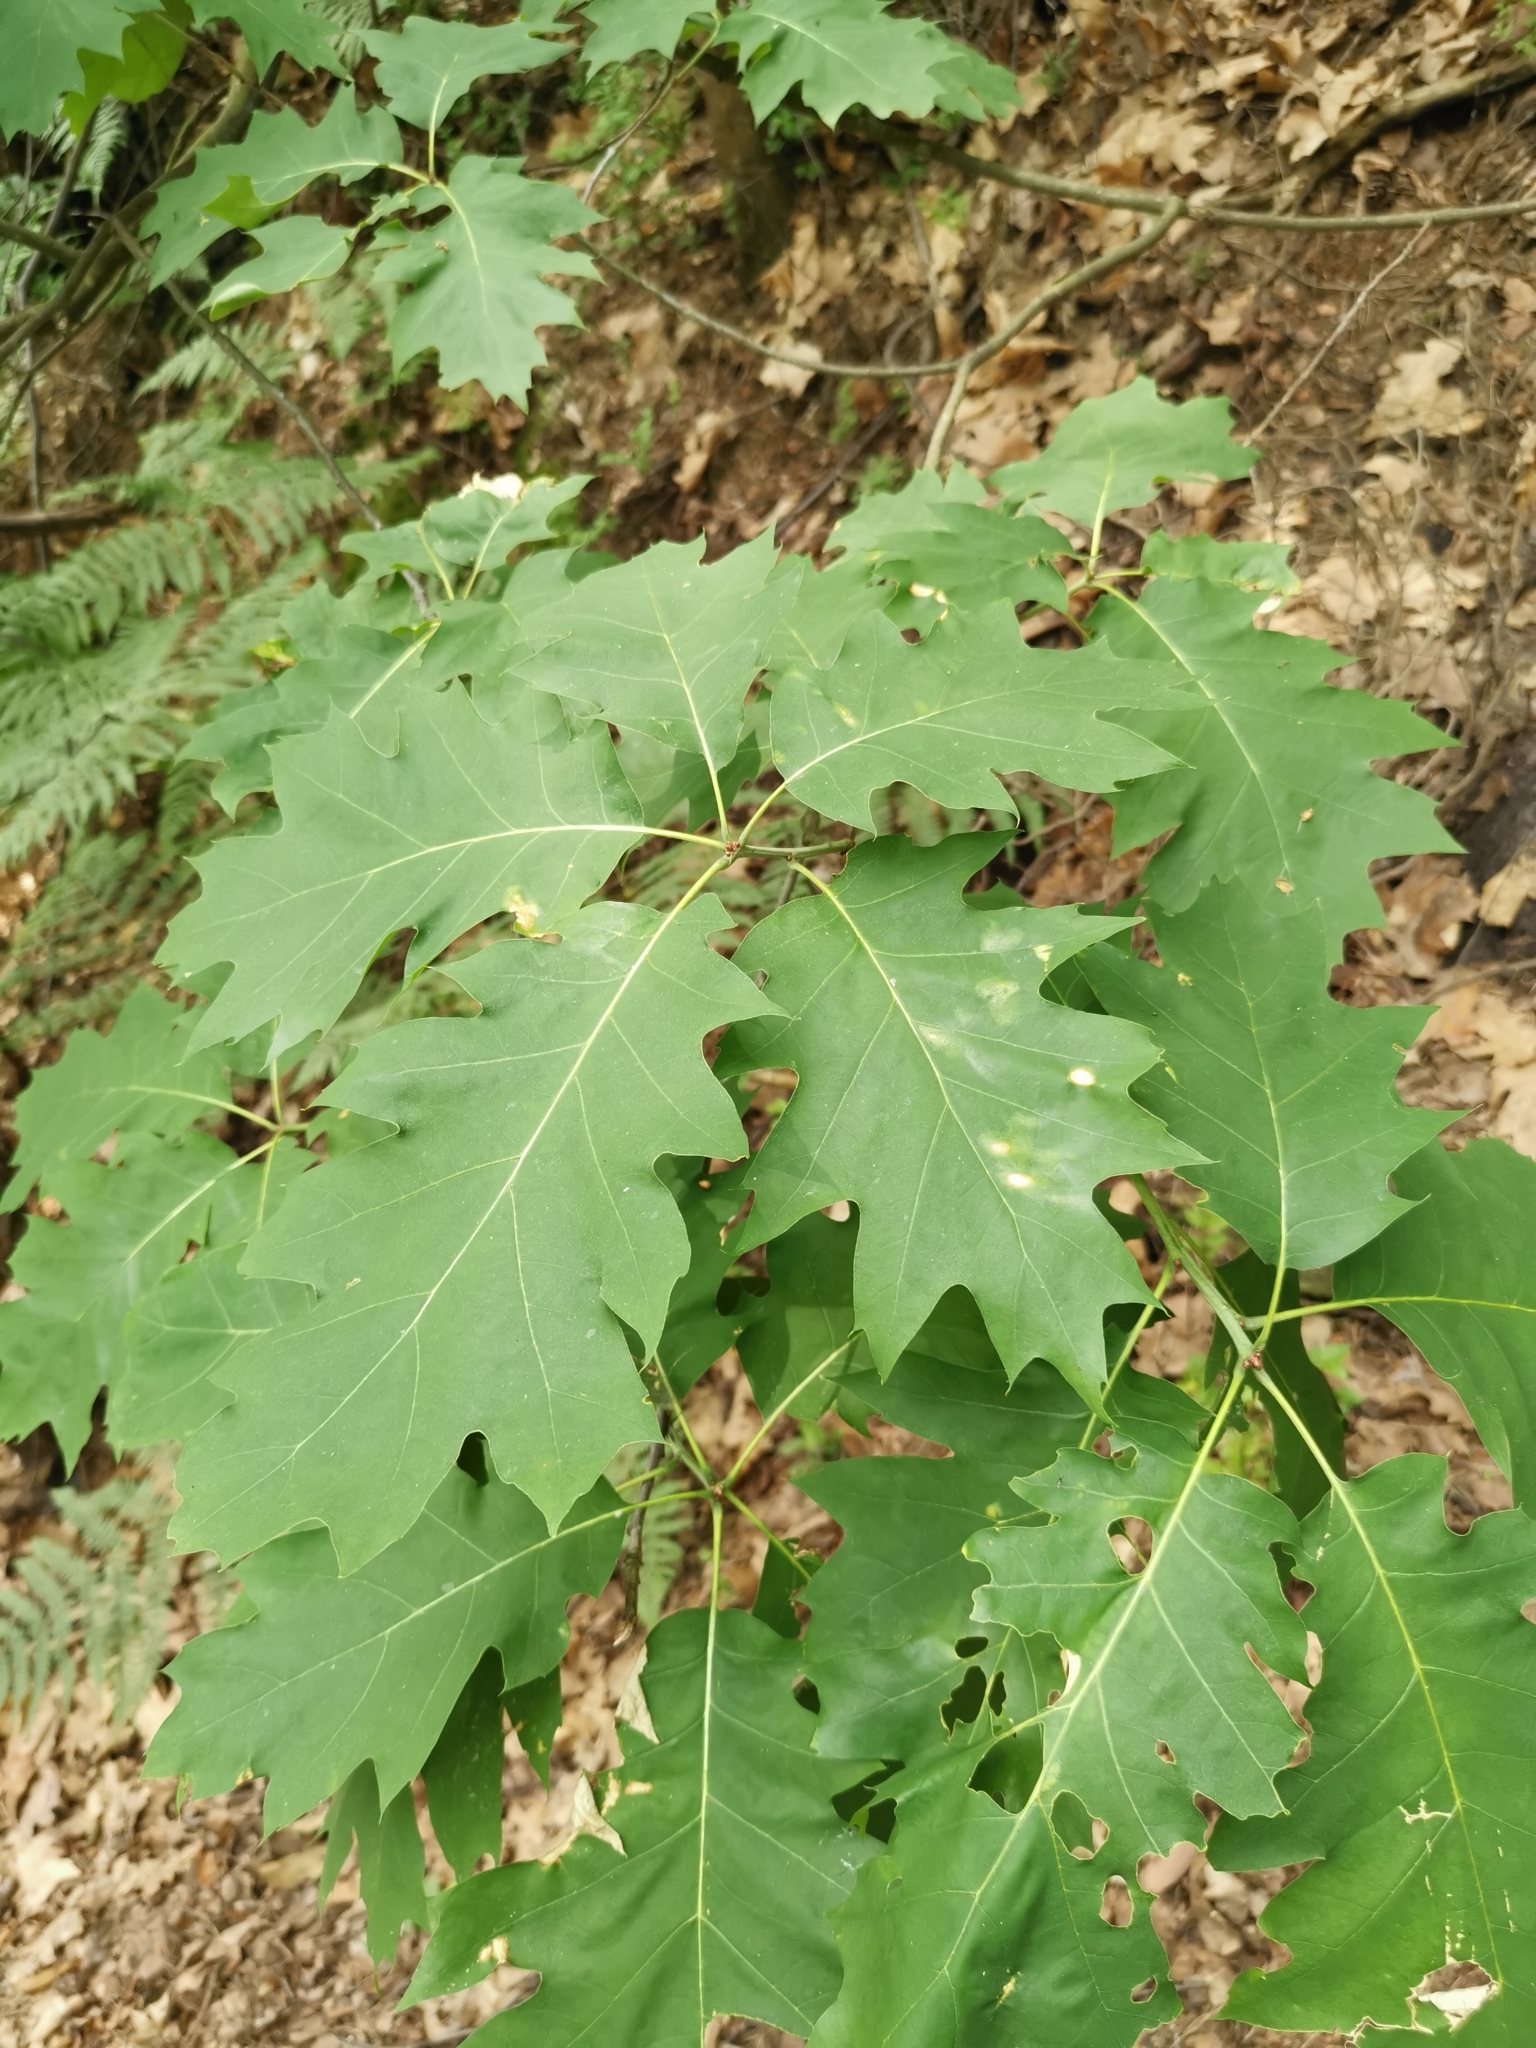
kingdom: Plantae
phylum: Tracheophyta
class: Magnoliopsida
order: Fagales
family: Fagaceae
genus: Quercus
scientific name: Quercus rubra
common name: Red oak
